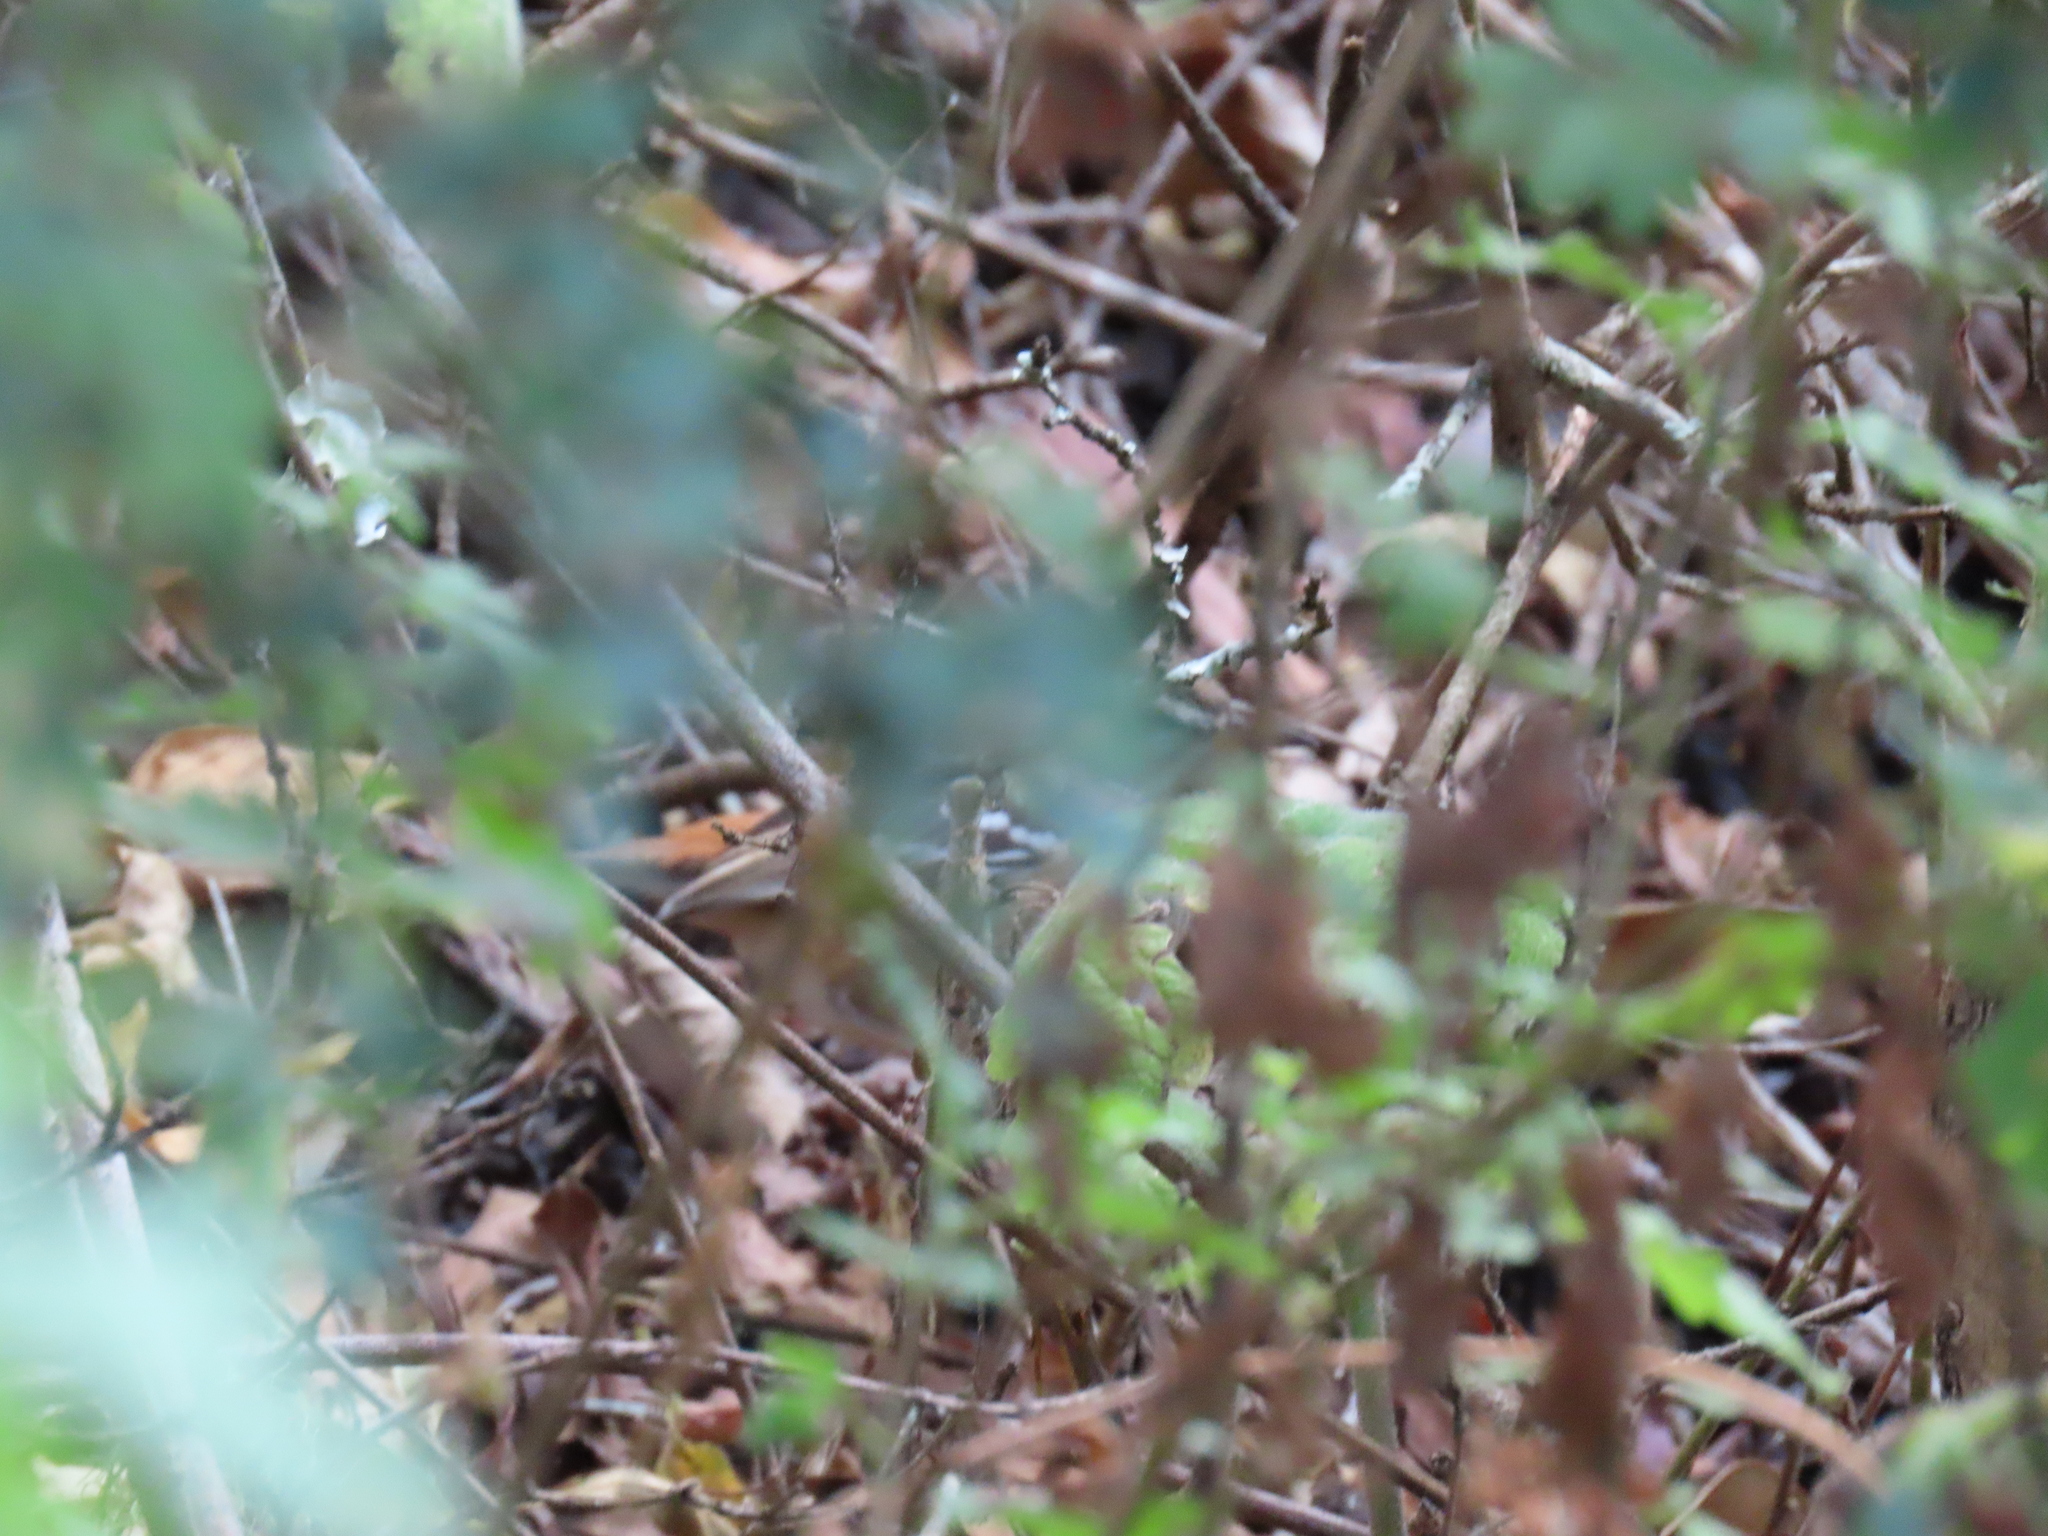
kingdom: Animalia
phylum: Chordata
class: Aves
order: Passeriformes
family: Muscicapidae
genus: Erythropygia
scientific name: Erythropygia leucophrys
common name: White-browed scrub robin
